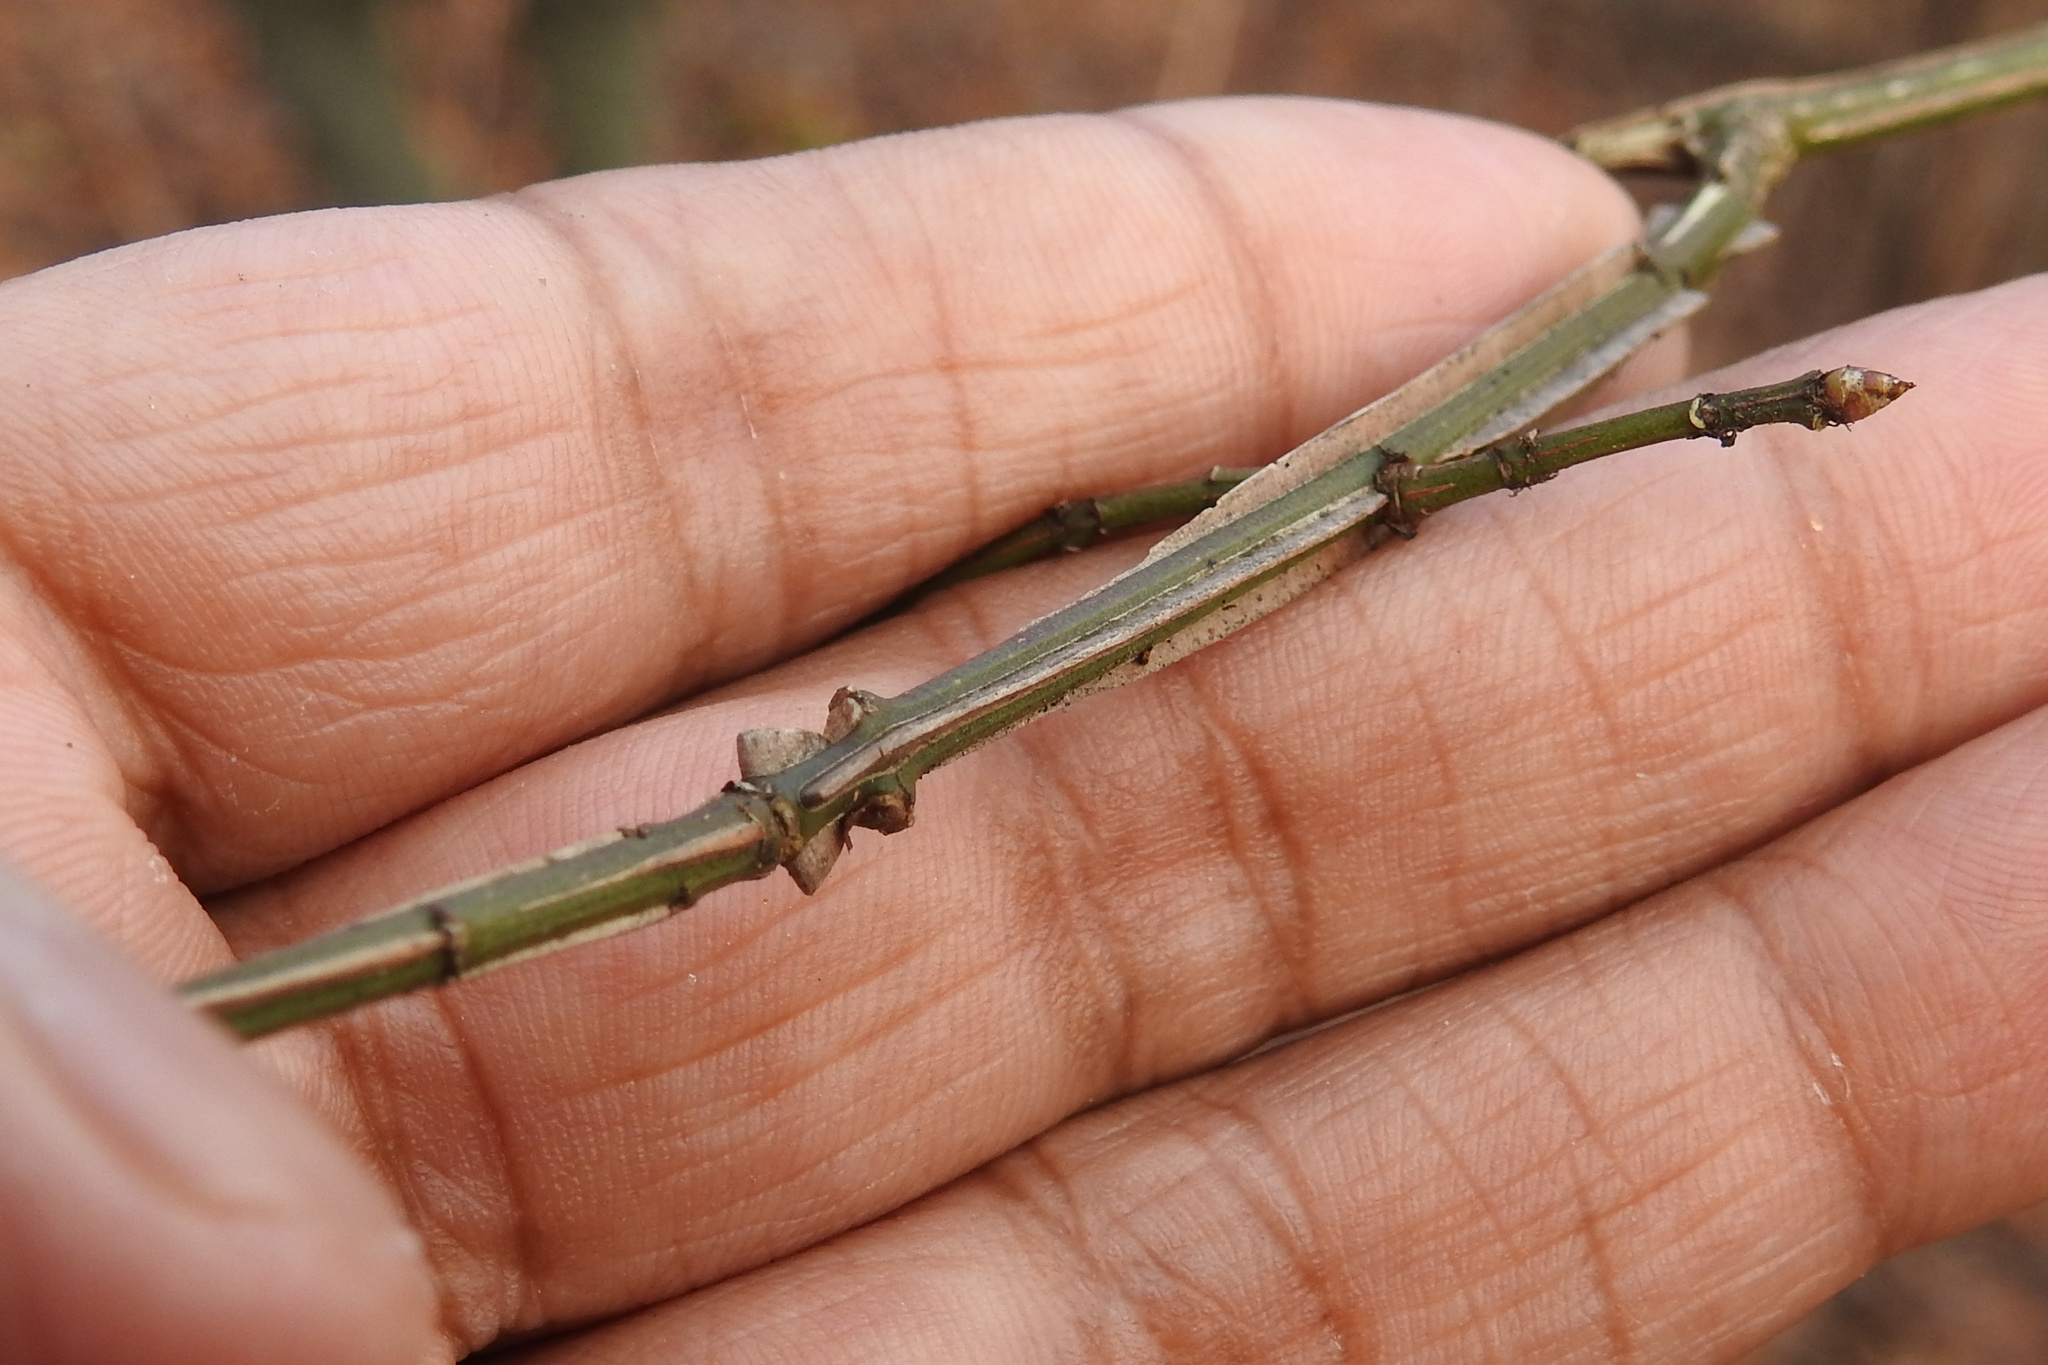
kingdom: Plantae
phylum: Tracheophyta
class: Magnoliopsida
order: Celastrales
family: Celastraceae
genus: Euonymus
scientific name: Euonymus alatus
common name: Winged euonymus
